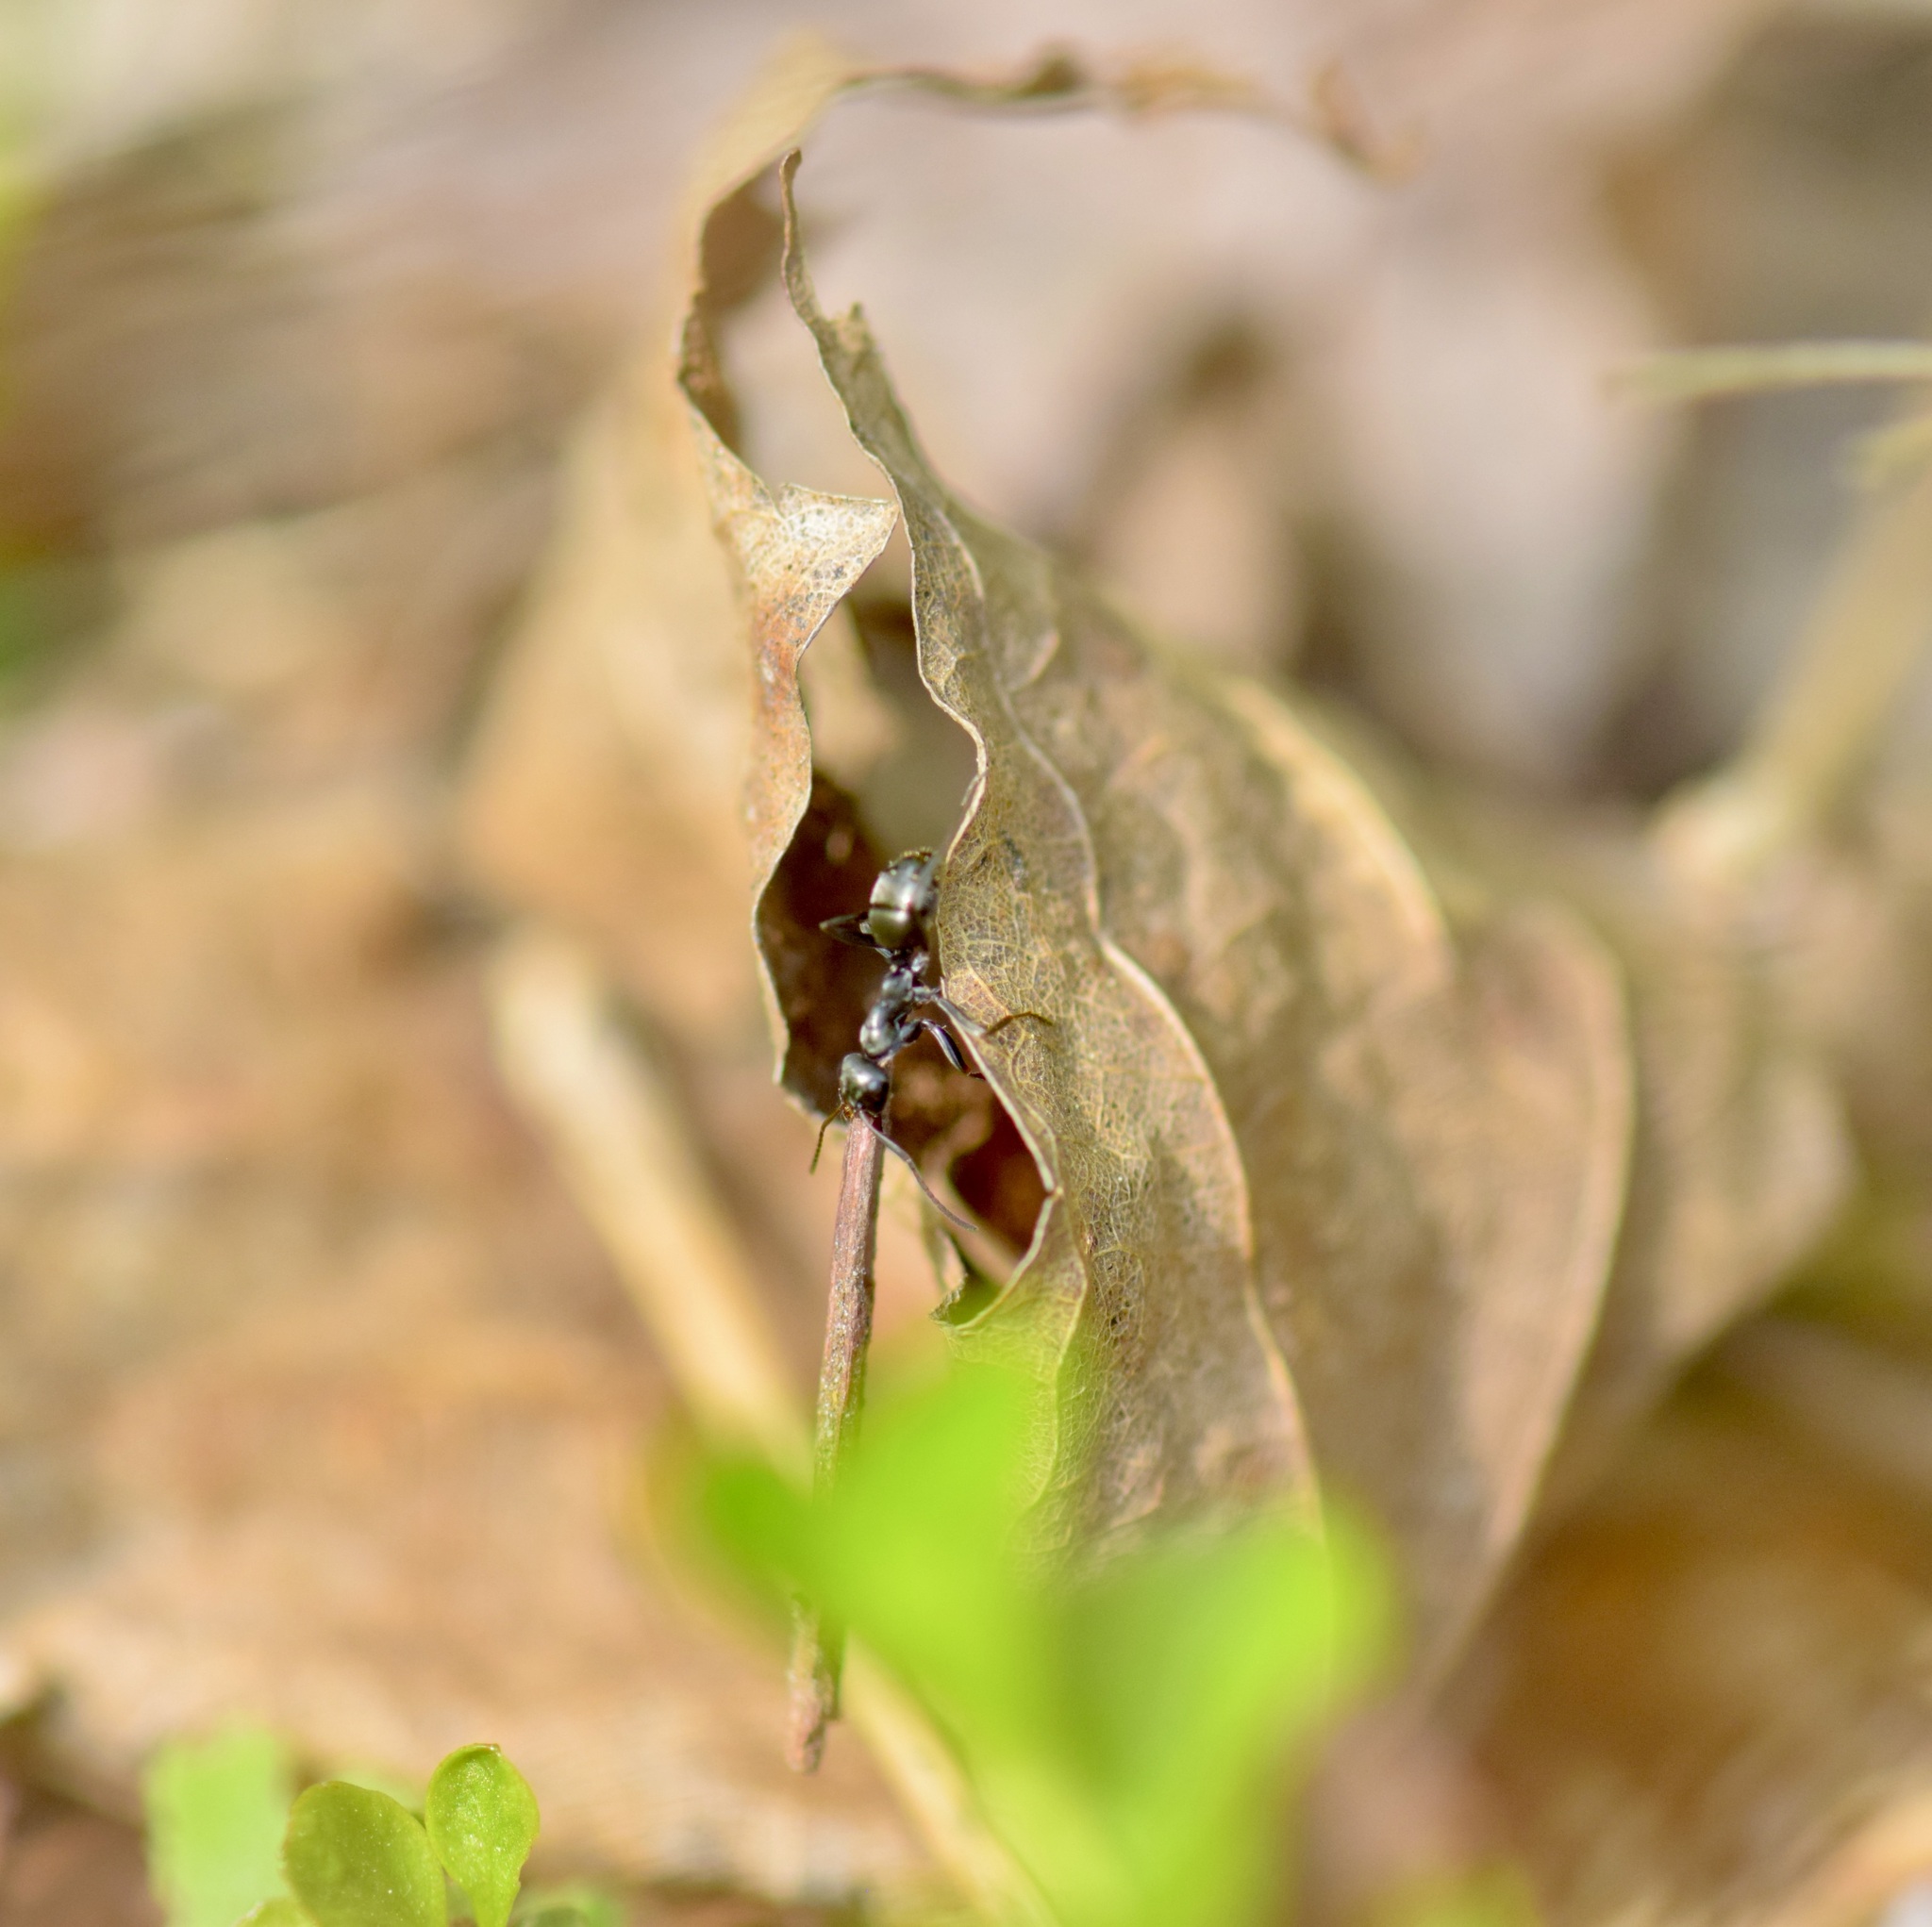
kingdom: Animalia
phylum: Arthropoda
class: Insecta
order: Hymenoptera
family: Formicidae
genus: Formica
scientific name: Formica
